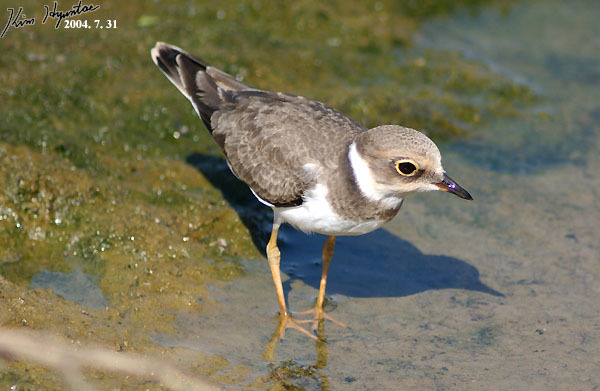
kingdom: Animalia
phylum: Chordata
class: Aves
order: Charadriiformes
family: Charadriidae
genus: Charadrius
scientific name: Charadrius dubius
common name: Little ringed plover
